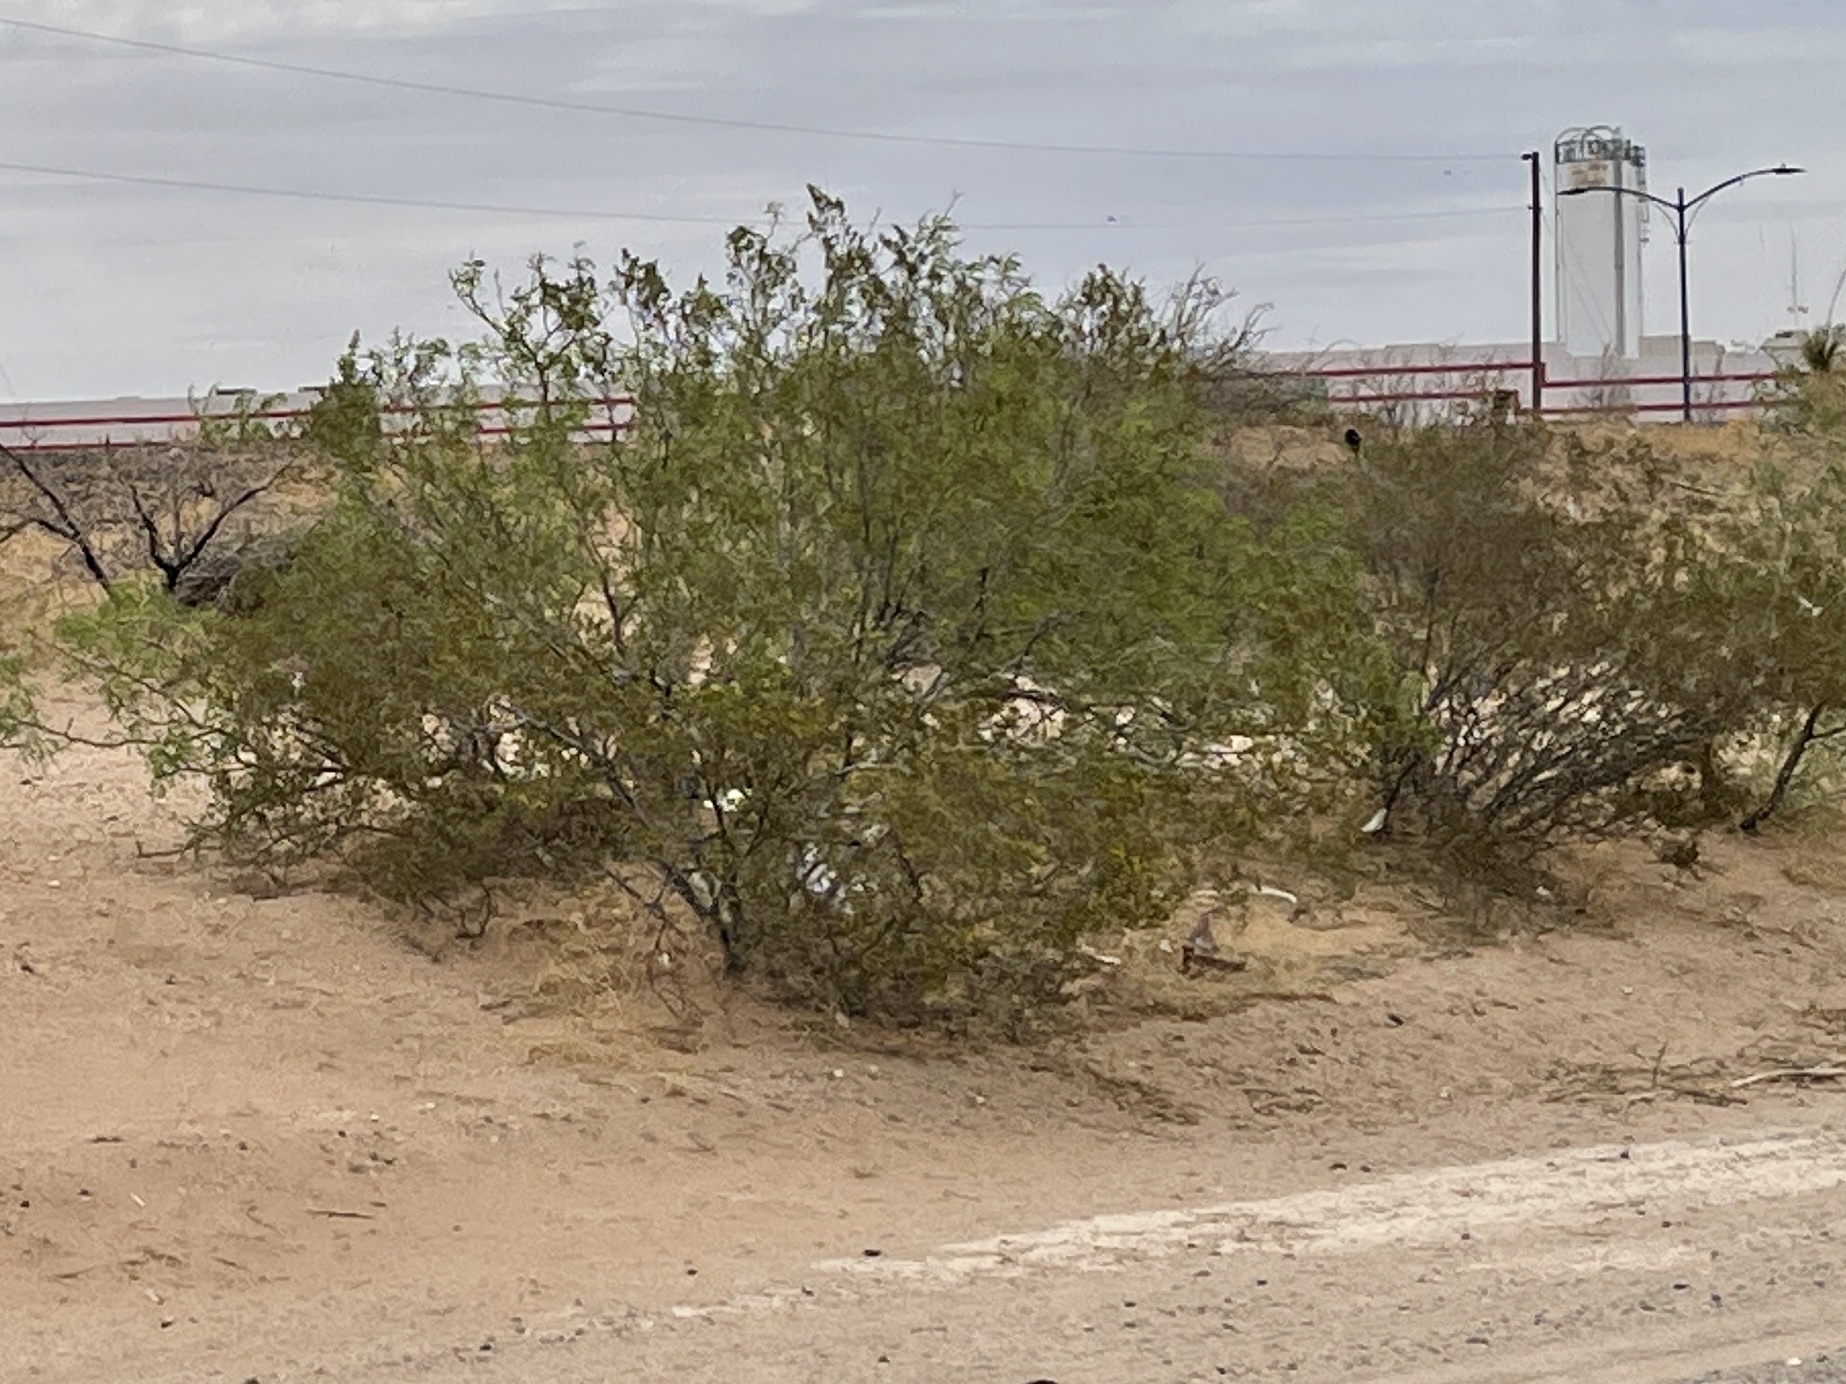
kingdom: Plantae
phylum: Tracheophyta
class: Magnoliopsida
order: Zygophyllales
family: Zygophyllaceae
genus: Larrea
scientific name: Larrea tridentata
